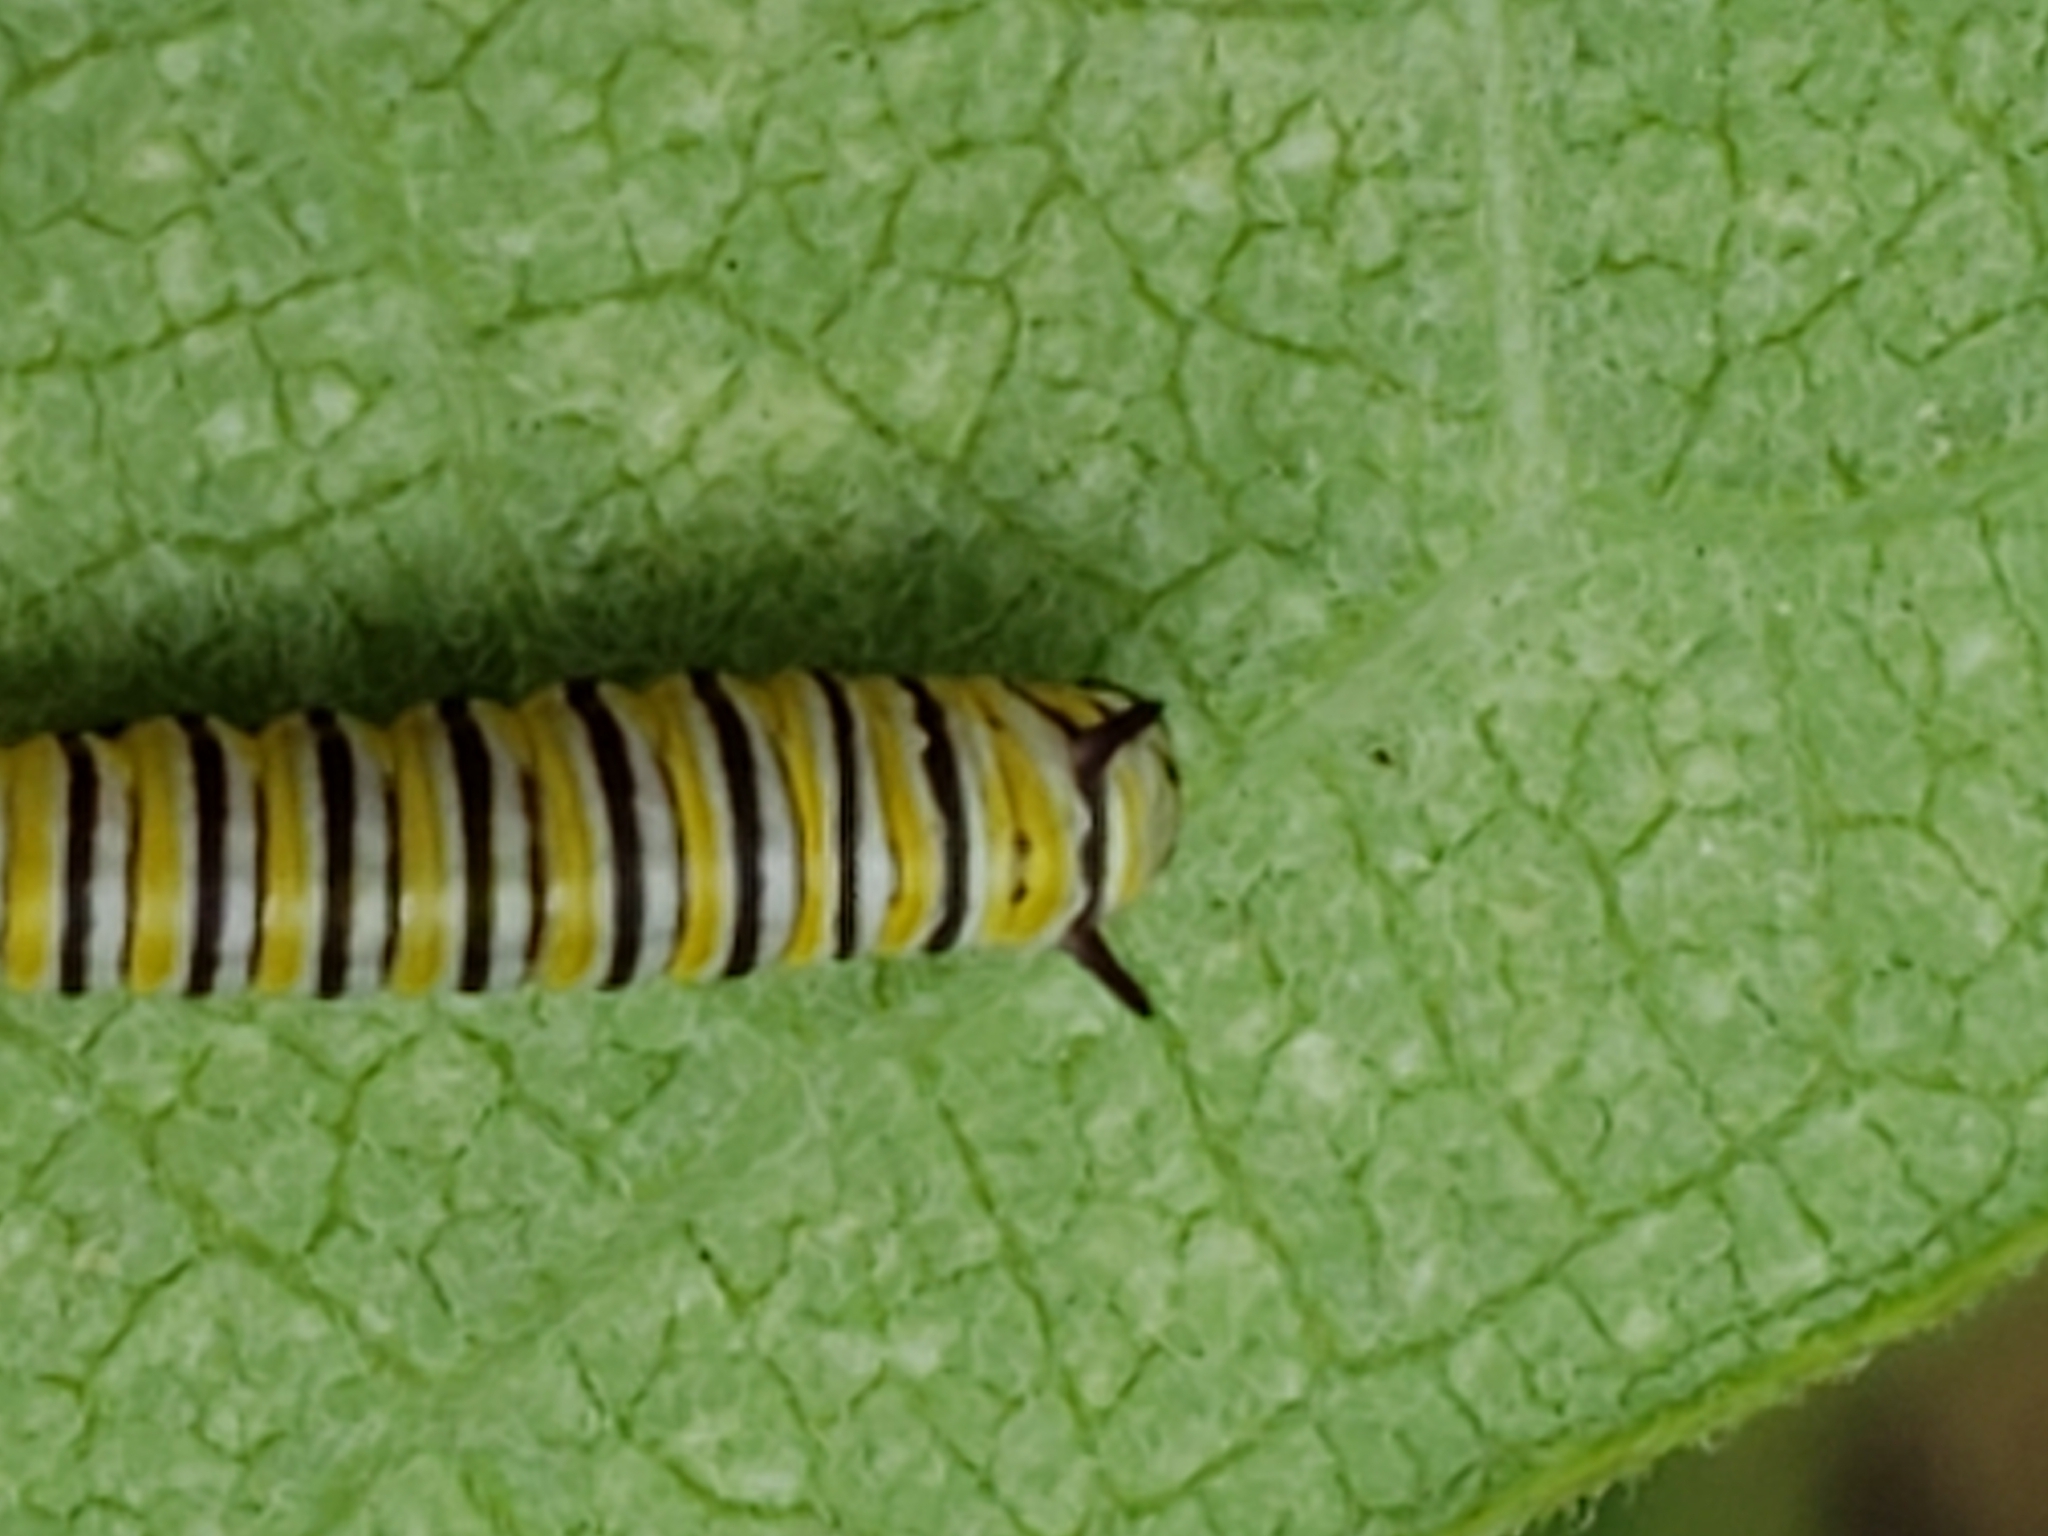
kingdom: Animalia
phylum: Arthropoda
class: Insecta
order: Lepidoptera
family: Nymphalidae
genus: Danaus
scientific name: Danaus plexippus
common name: Monarch
